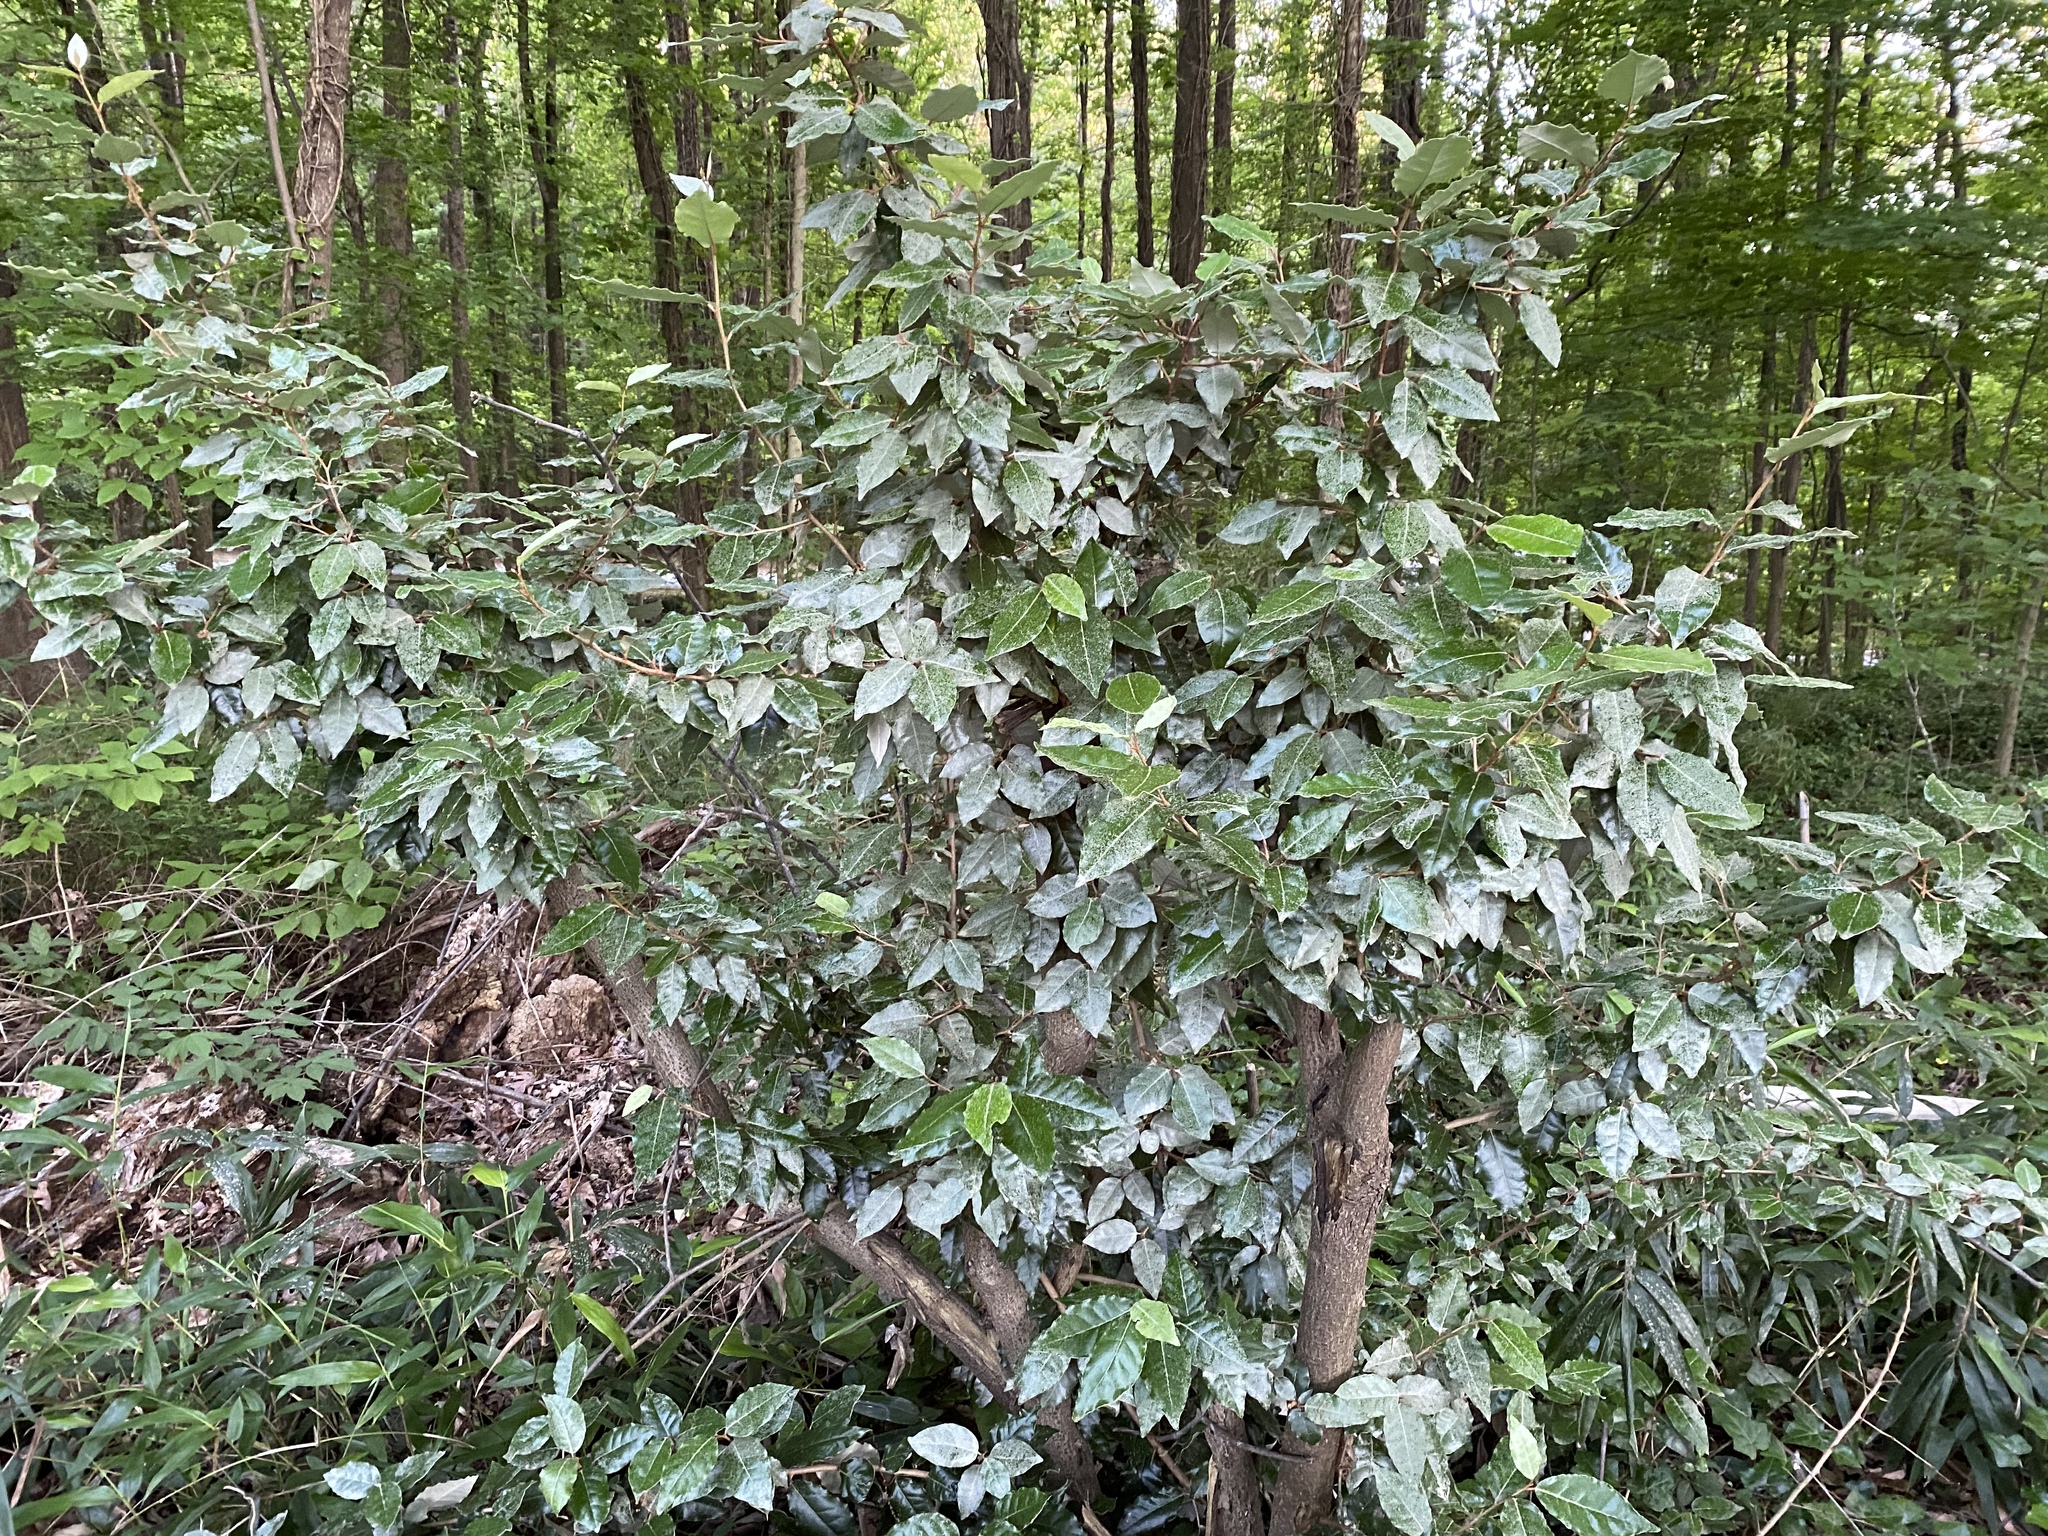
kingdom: Plantae
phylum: Tracheophyta
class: Magnoliopsida
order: Rosales
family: Elaeagnaceae
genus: Elaeagnus
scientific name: Elaeagnus pungens
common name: Spiny oleaster
